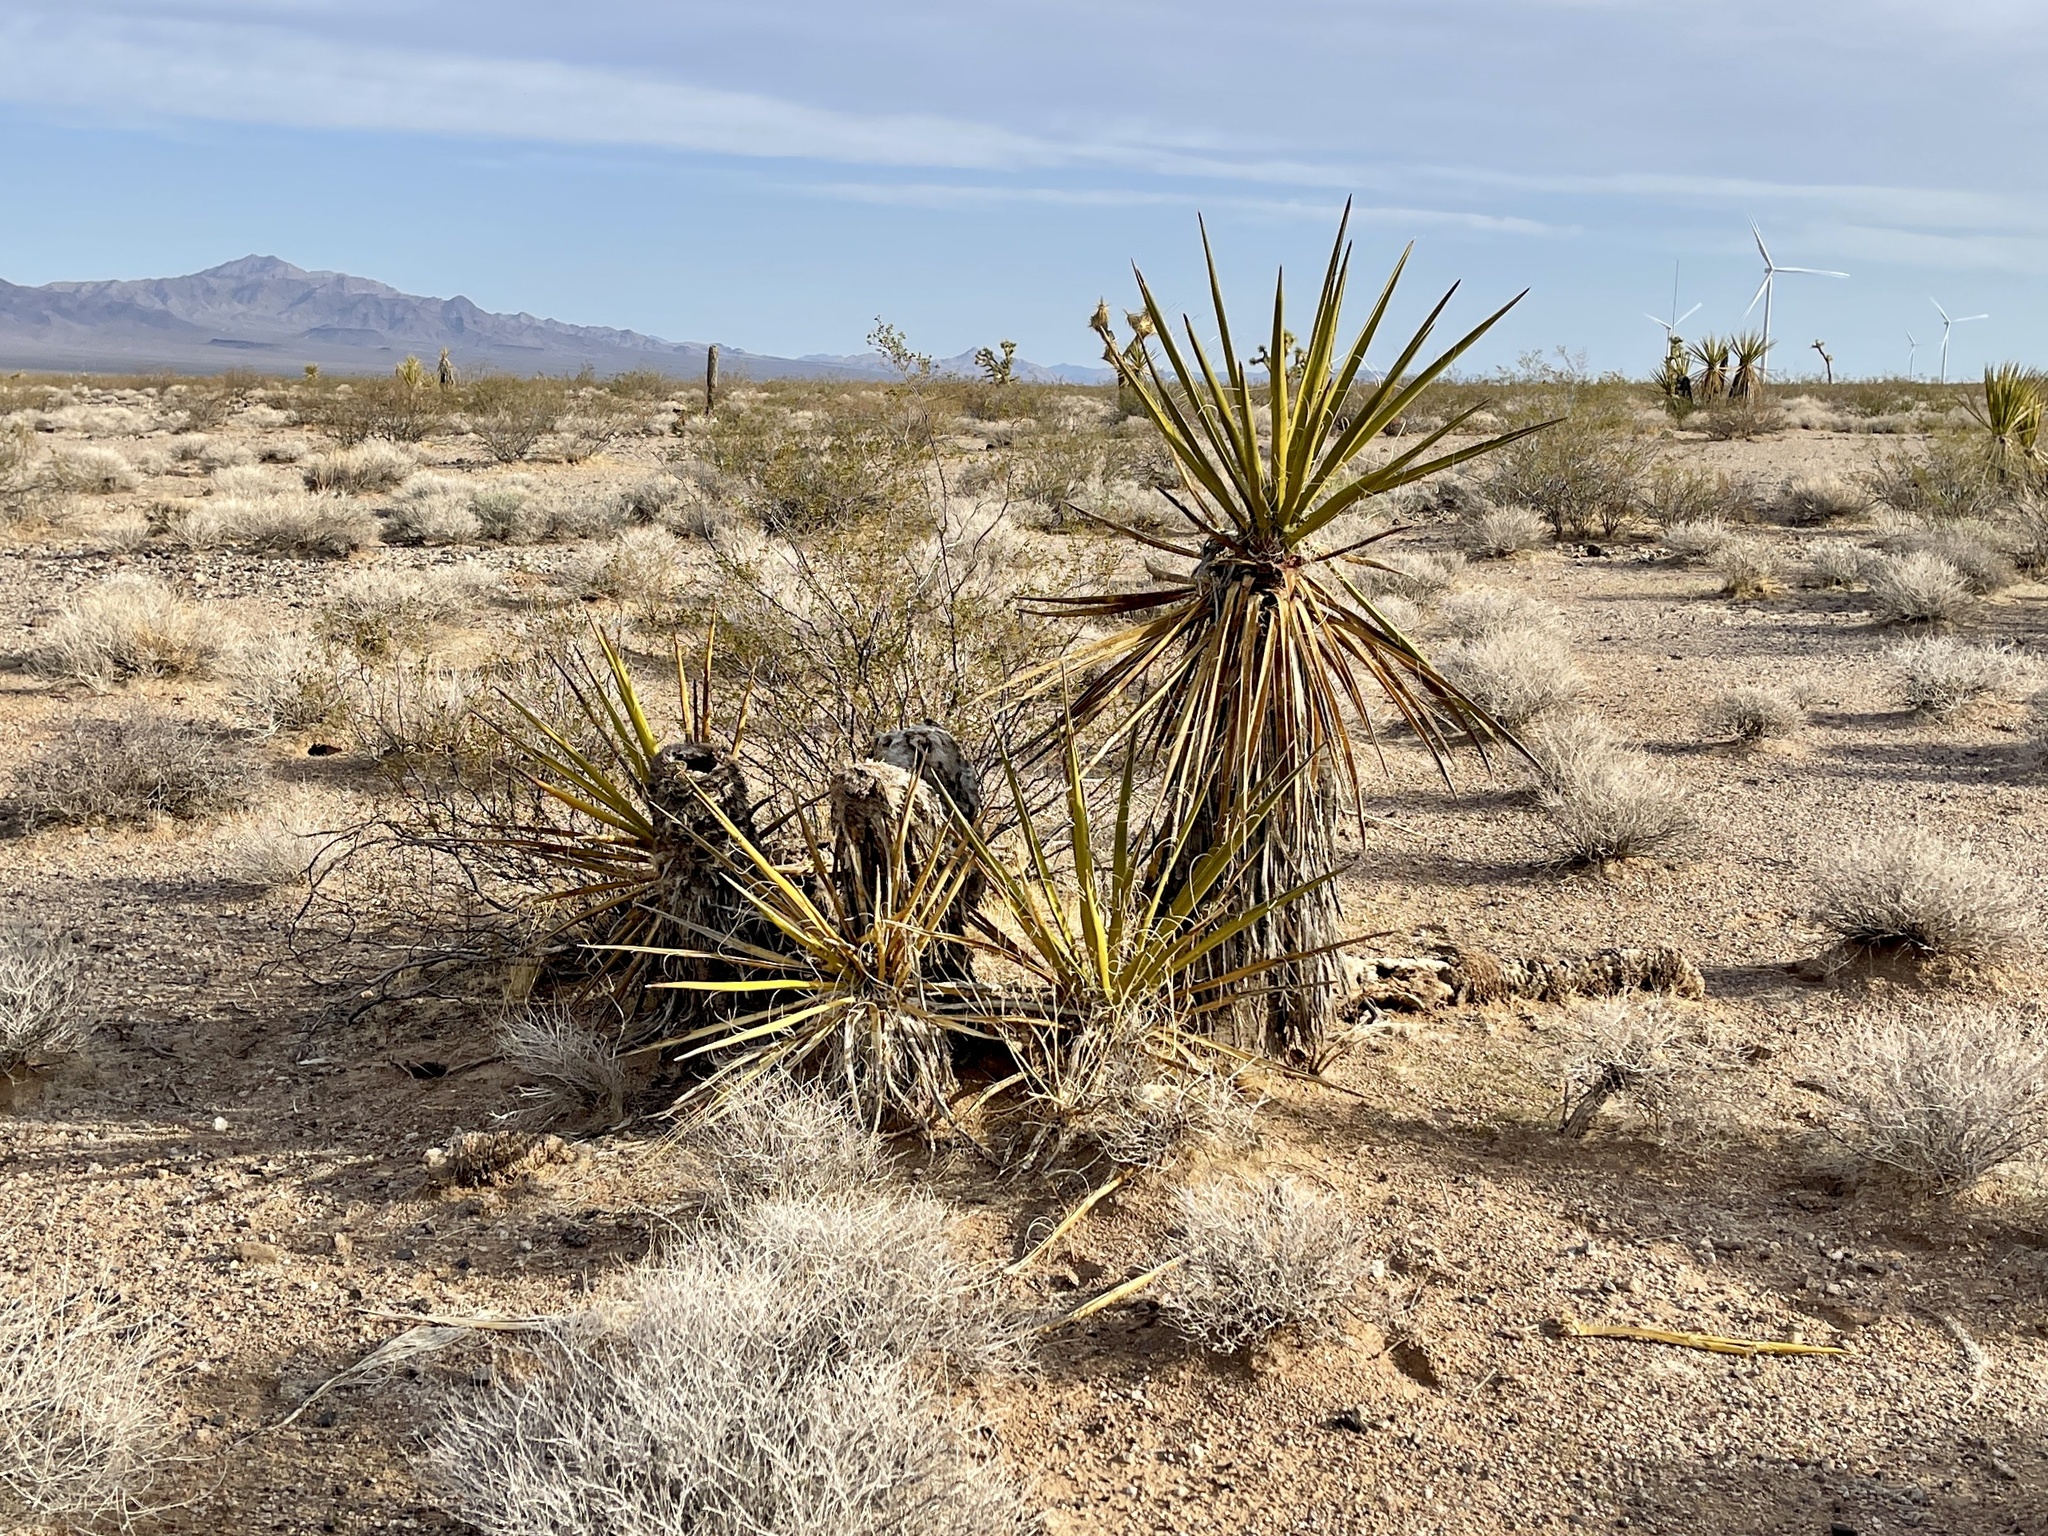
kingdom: Plantae
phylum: Tracheophyta
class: Liliopsida
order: Asparagales
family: Asparagaceae
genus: Yucca
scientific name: Yucca schidigera
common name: Mojave yucca
